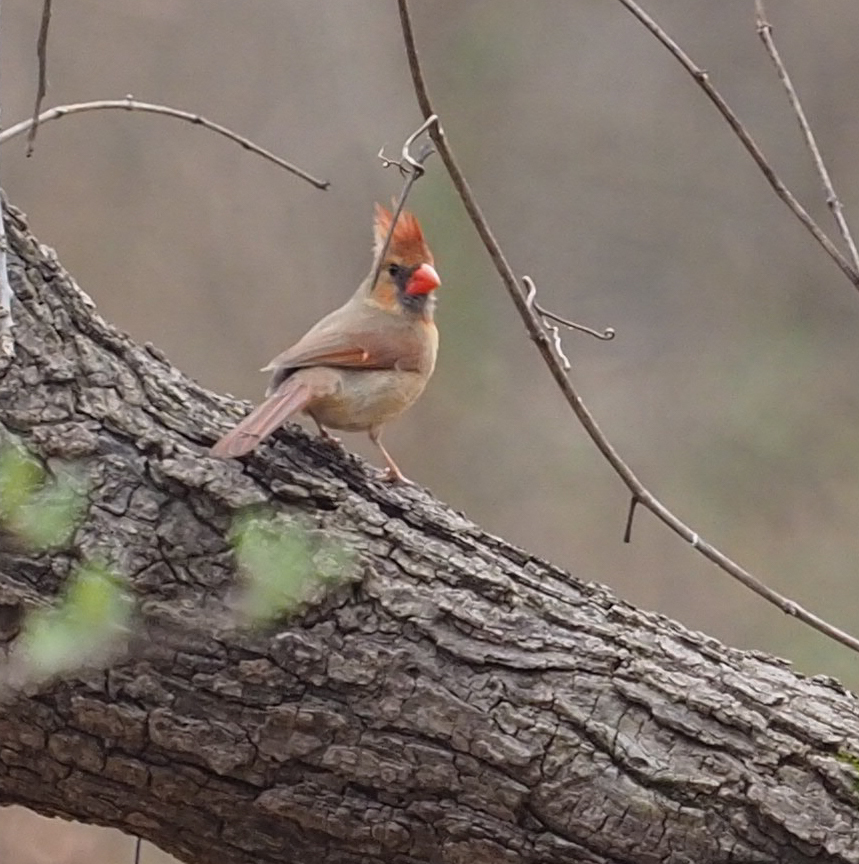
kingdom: Animalia
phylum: Chordata
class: Aves
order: Passeriformes
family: Cardinalidae
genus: Cardinalis
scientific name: Cardinalis cardinalis
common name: Northern cardinal
